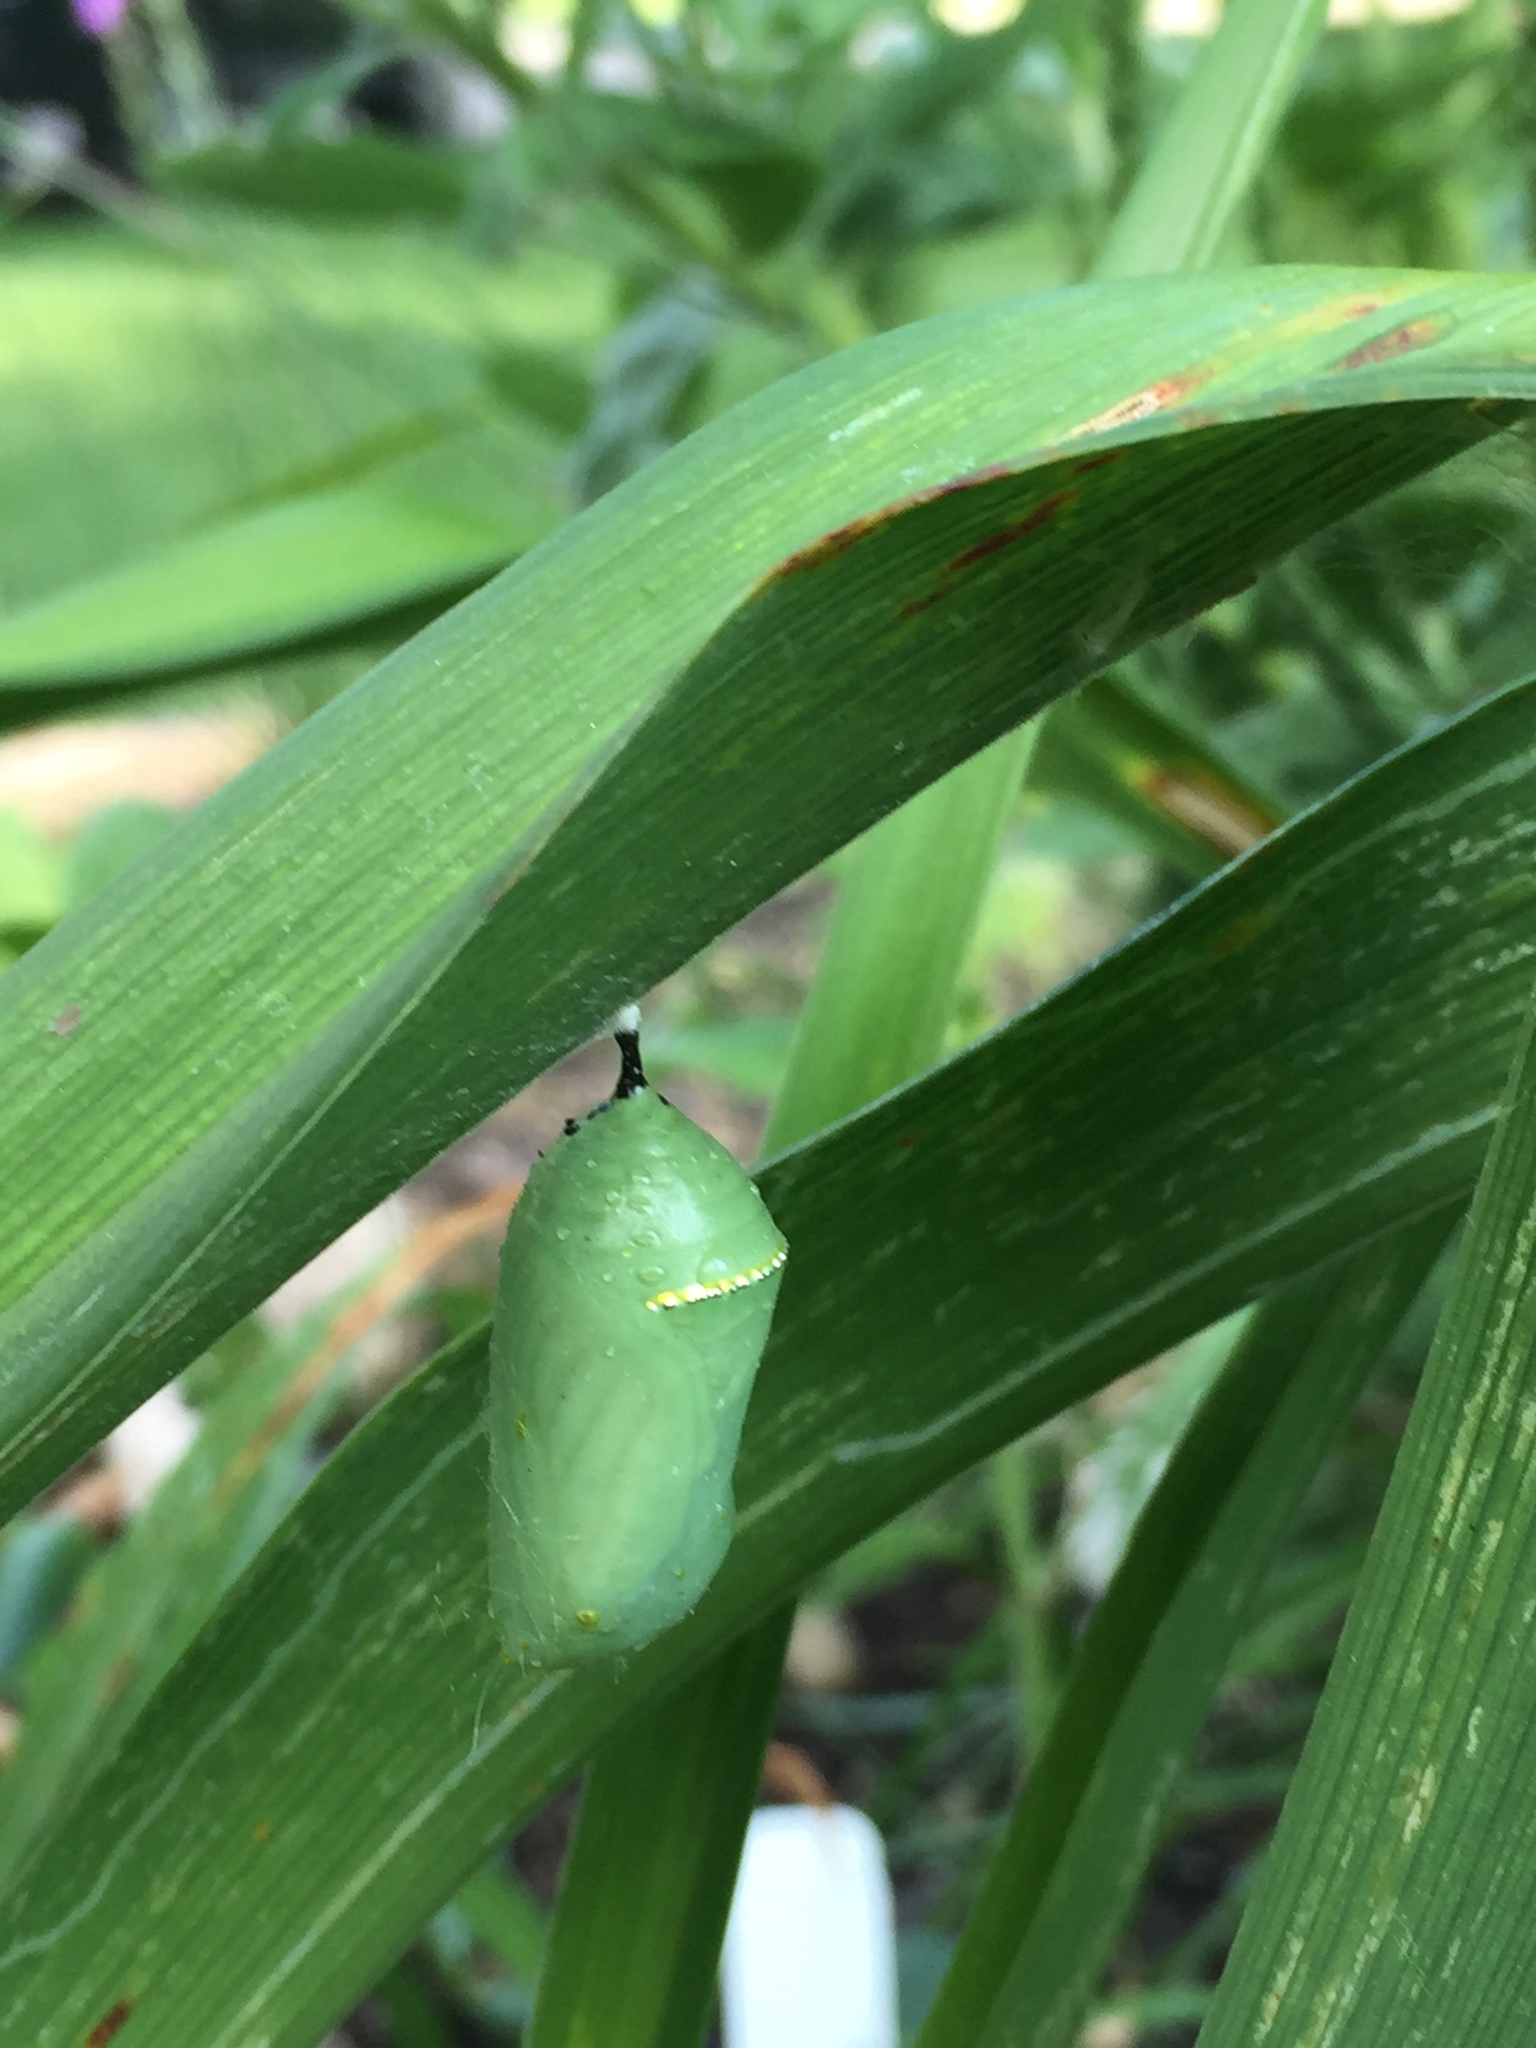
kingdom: Animalia
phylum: Arthropoda
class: Insecta
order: Lepidoptera
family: Nymphalidae
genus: Danaus
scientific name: Danaus plexippus
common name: Monarch
